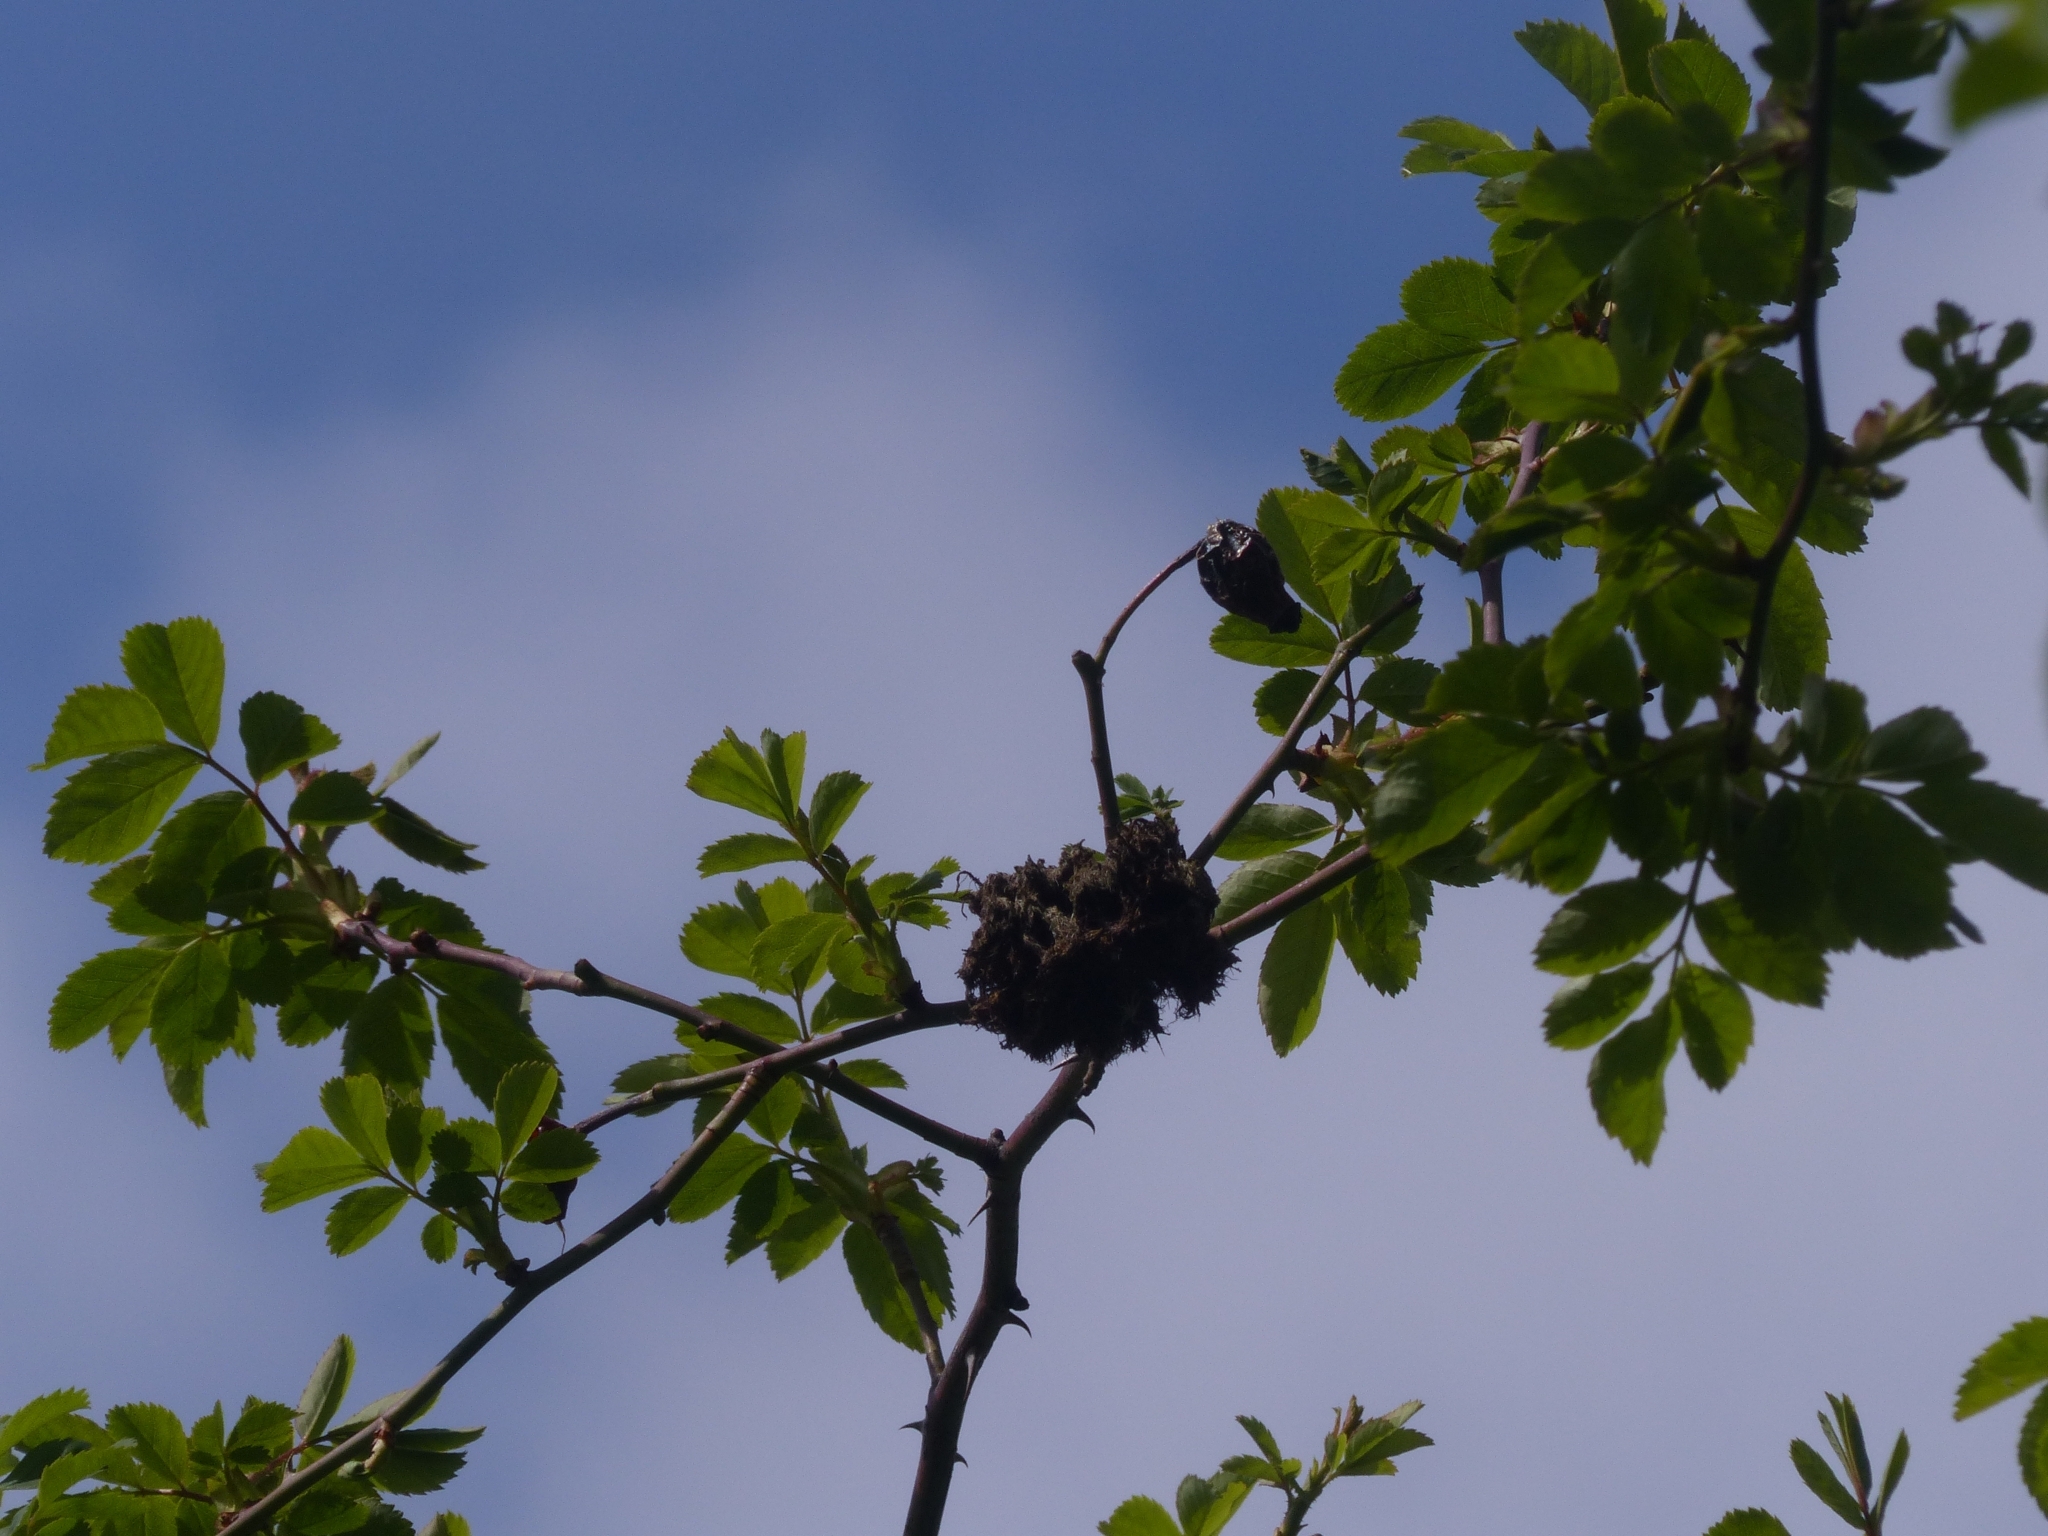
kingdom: Animalia
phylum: Arthropoda
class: Insecta
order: Hymenoptera
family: Cynipidae
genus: Diplolepis
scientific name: Diplolepis rosae
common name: Bedeguar gall
